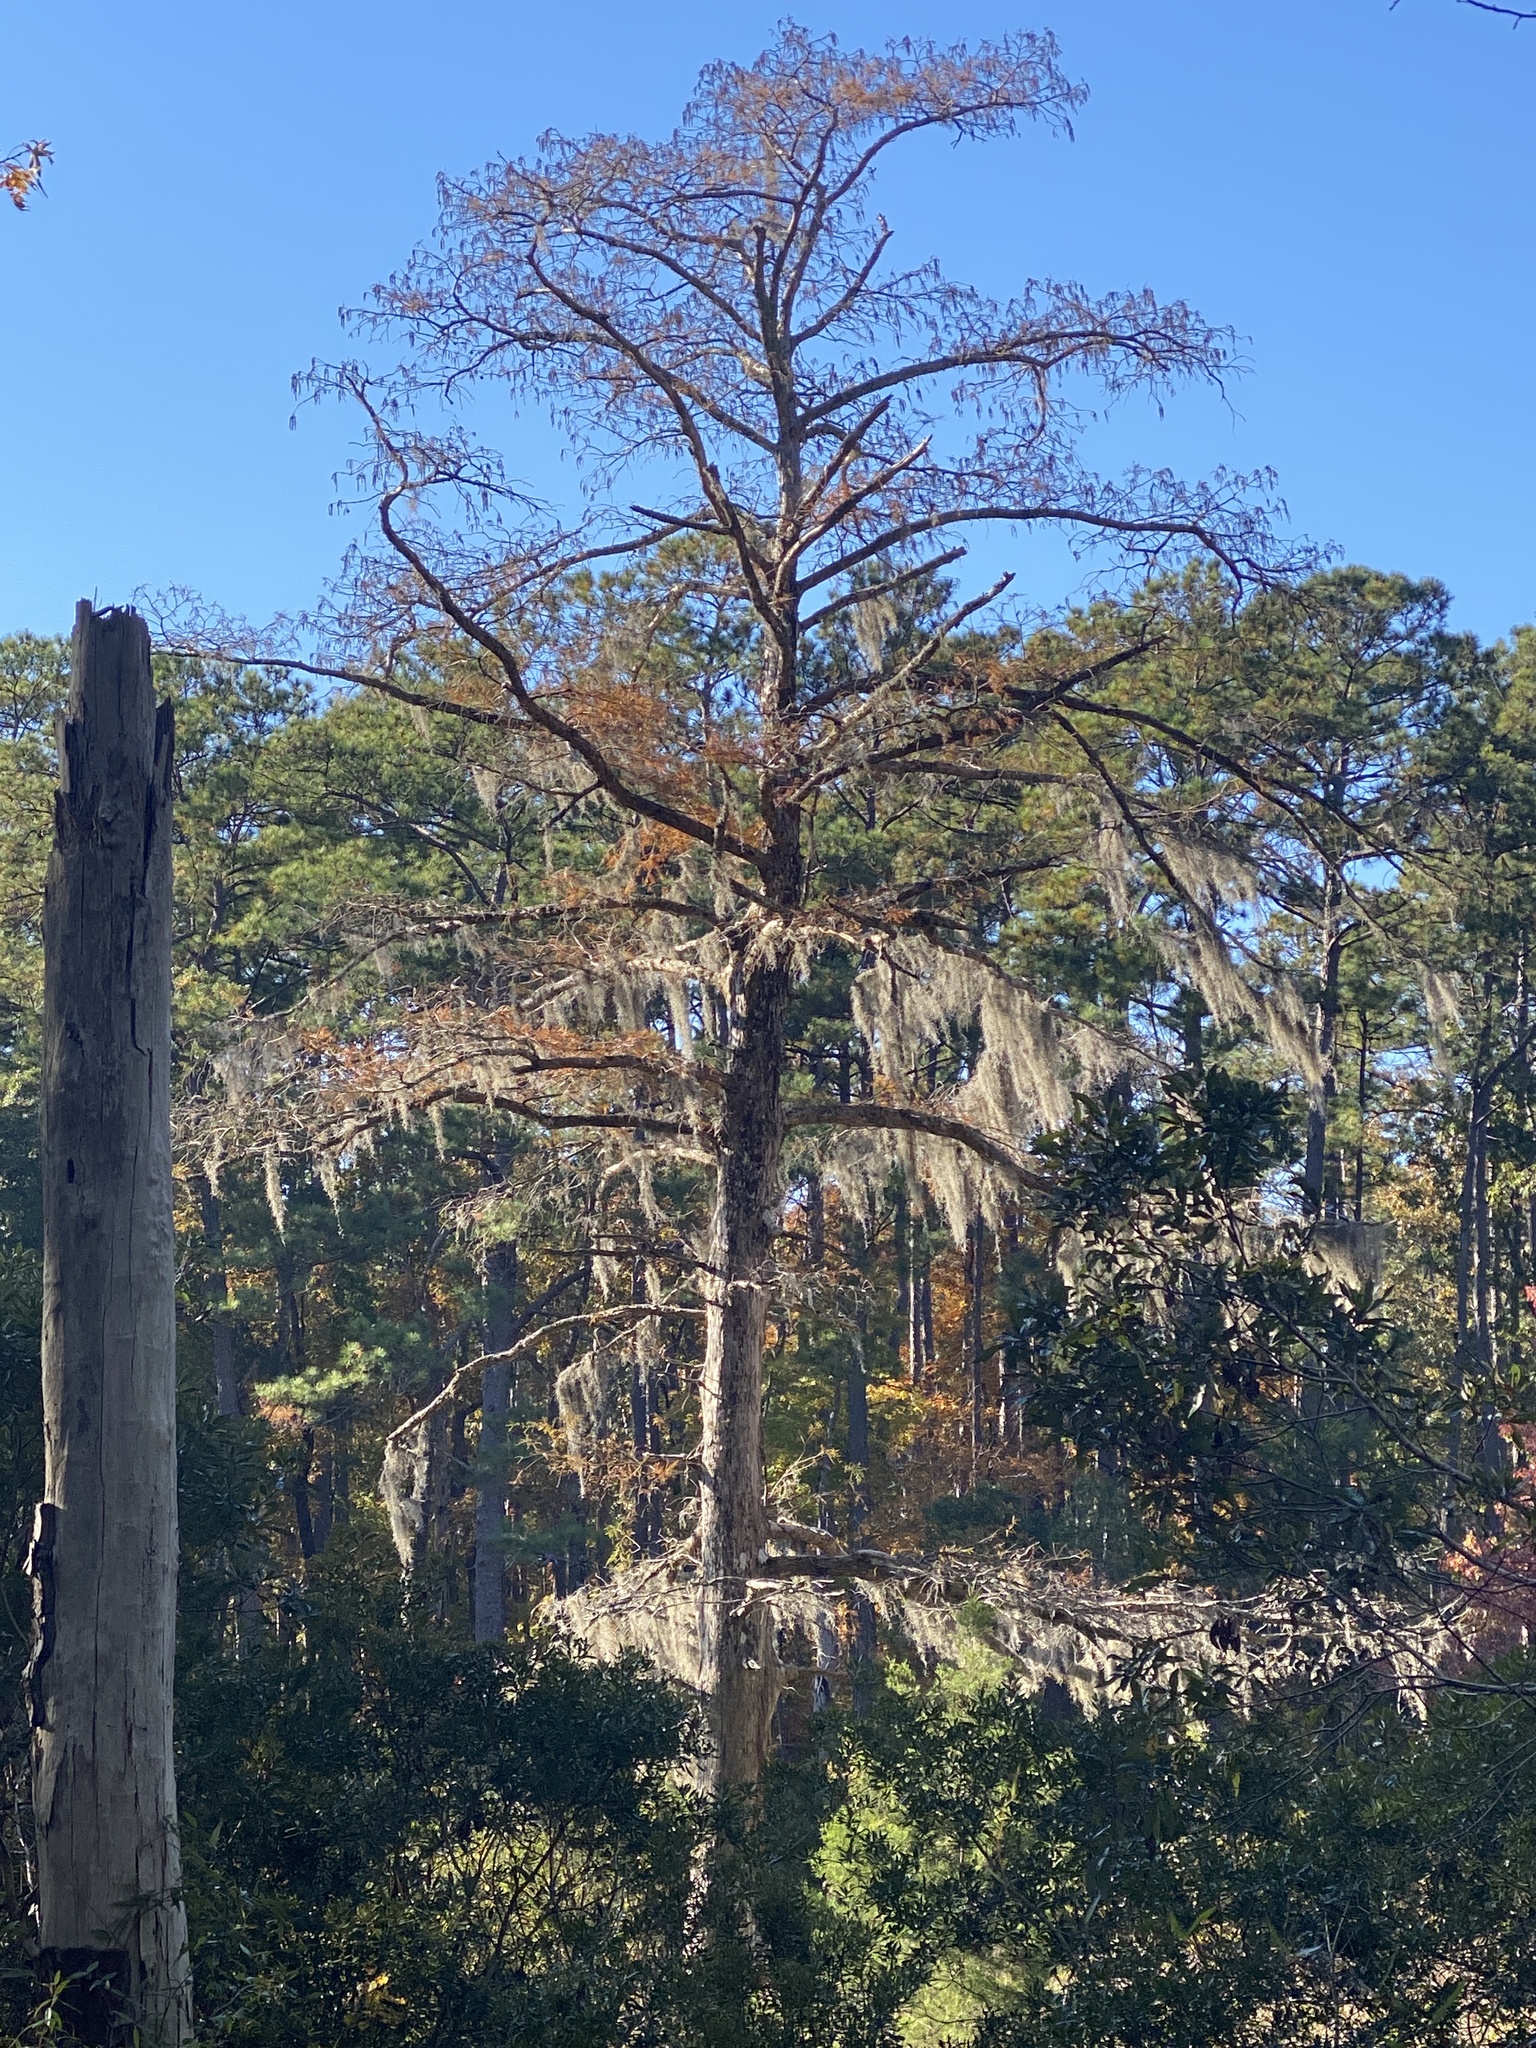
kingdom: Plantae
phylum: Tracheophyta
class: Liliopsida
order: Poales
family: Bromeliaceae
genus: Tillandsia
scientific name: Tillandsia usneoides
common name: Spanish moss
